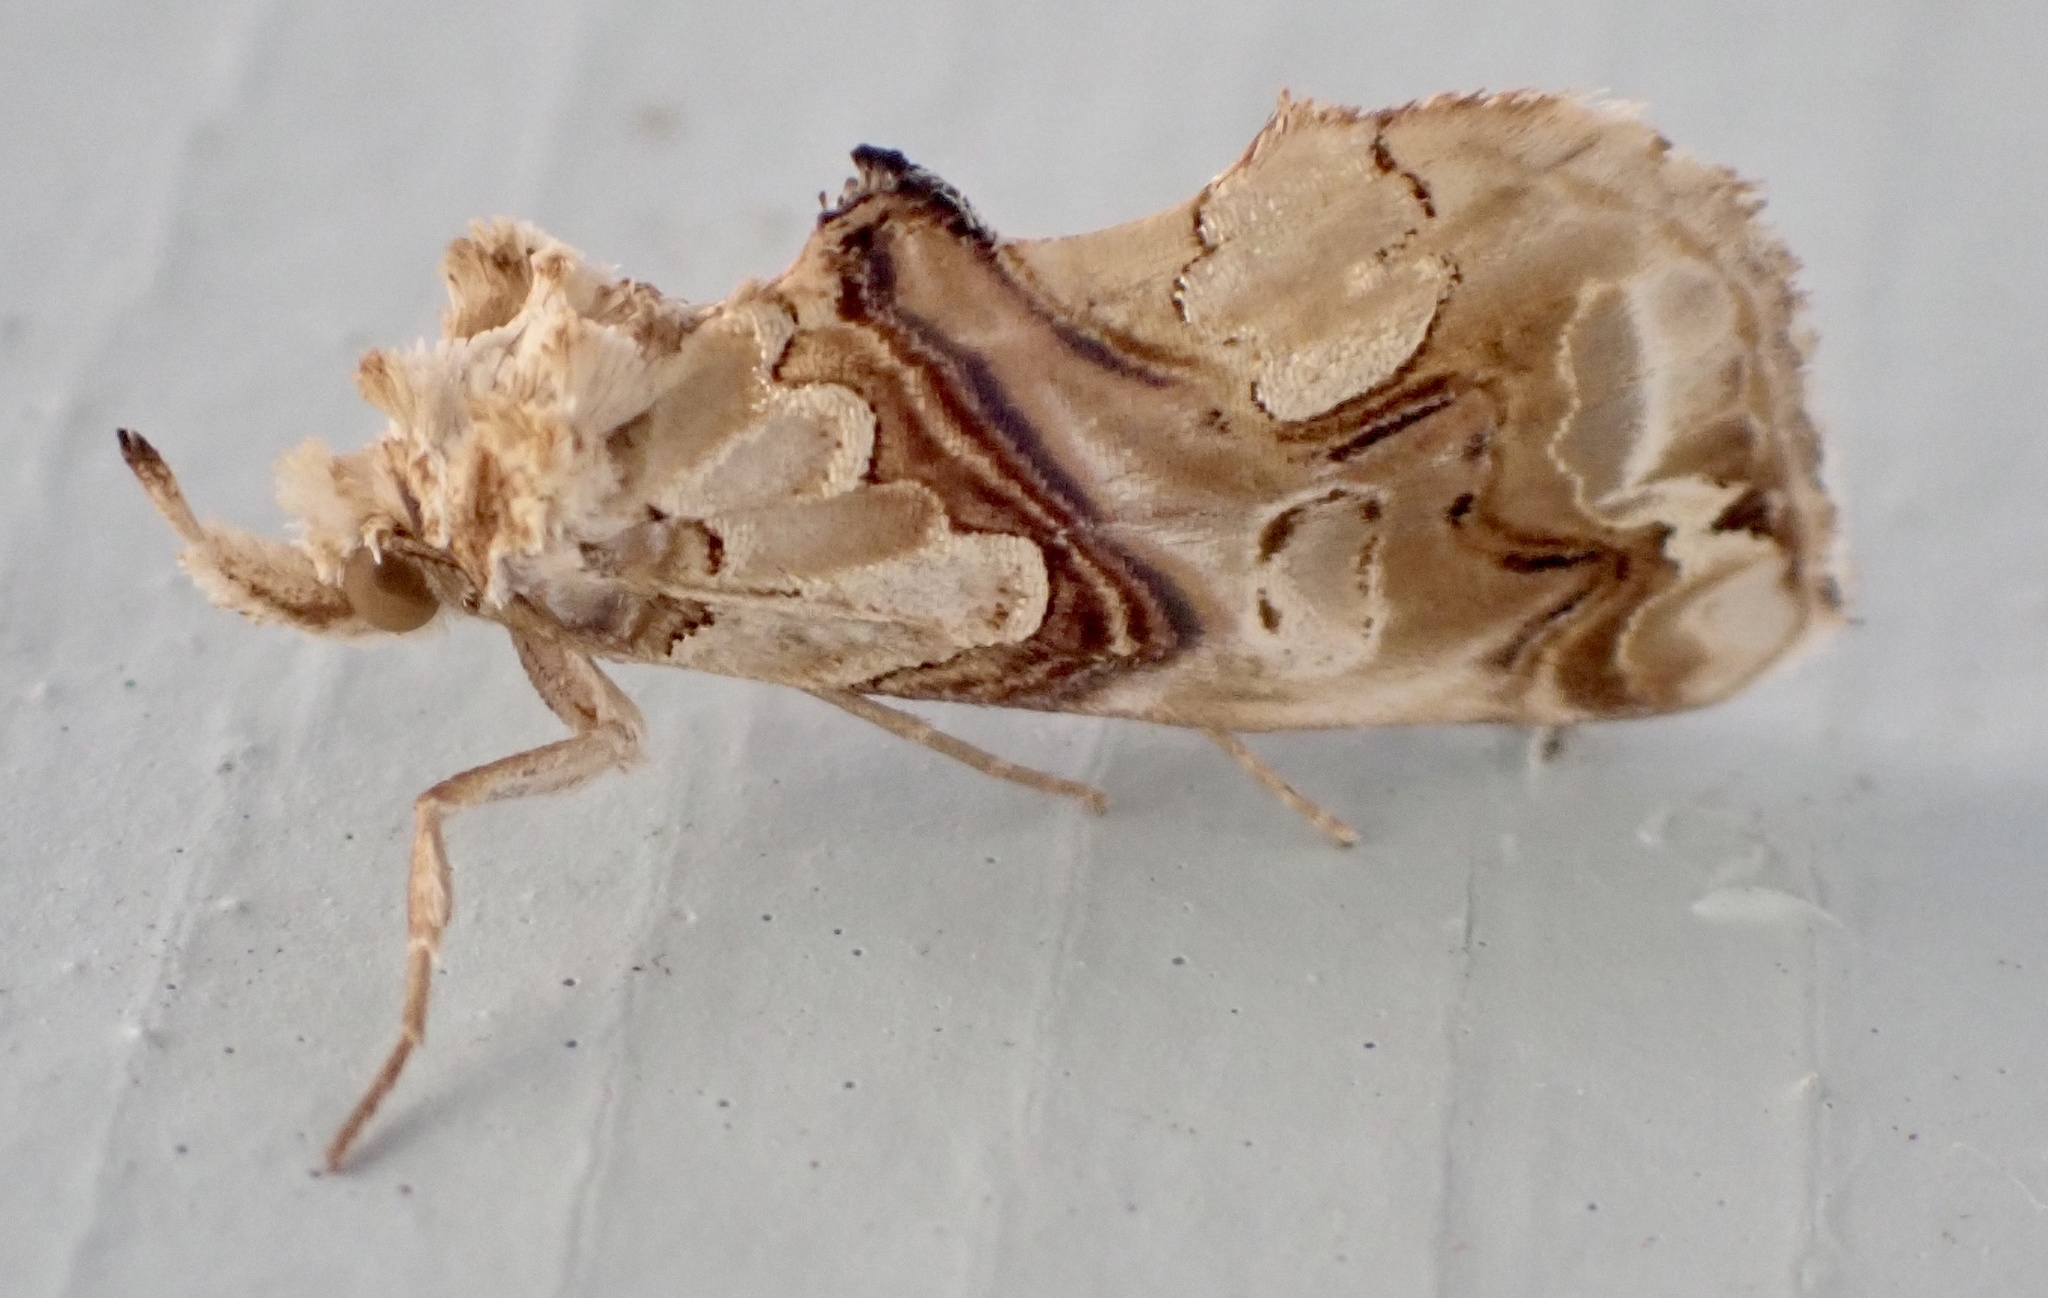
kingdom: Animalia
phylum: Arthropoda
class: Insecta
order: Lepidoptera
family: Erebidae
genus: Plusiodonta
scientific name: Plusiodonta compressipalpis
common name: Moonseed moth
